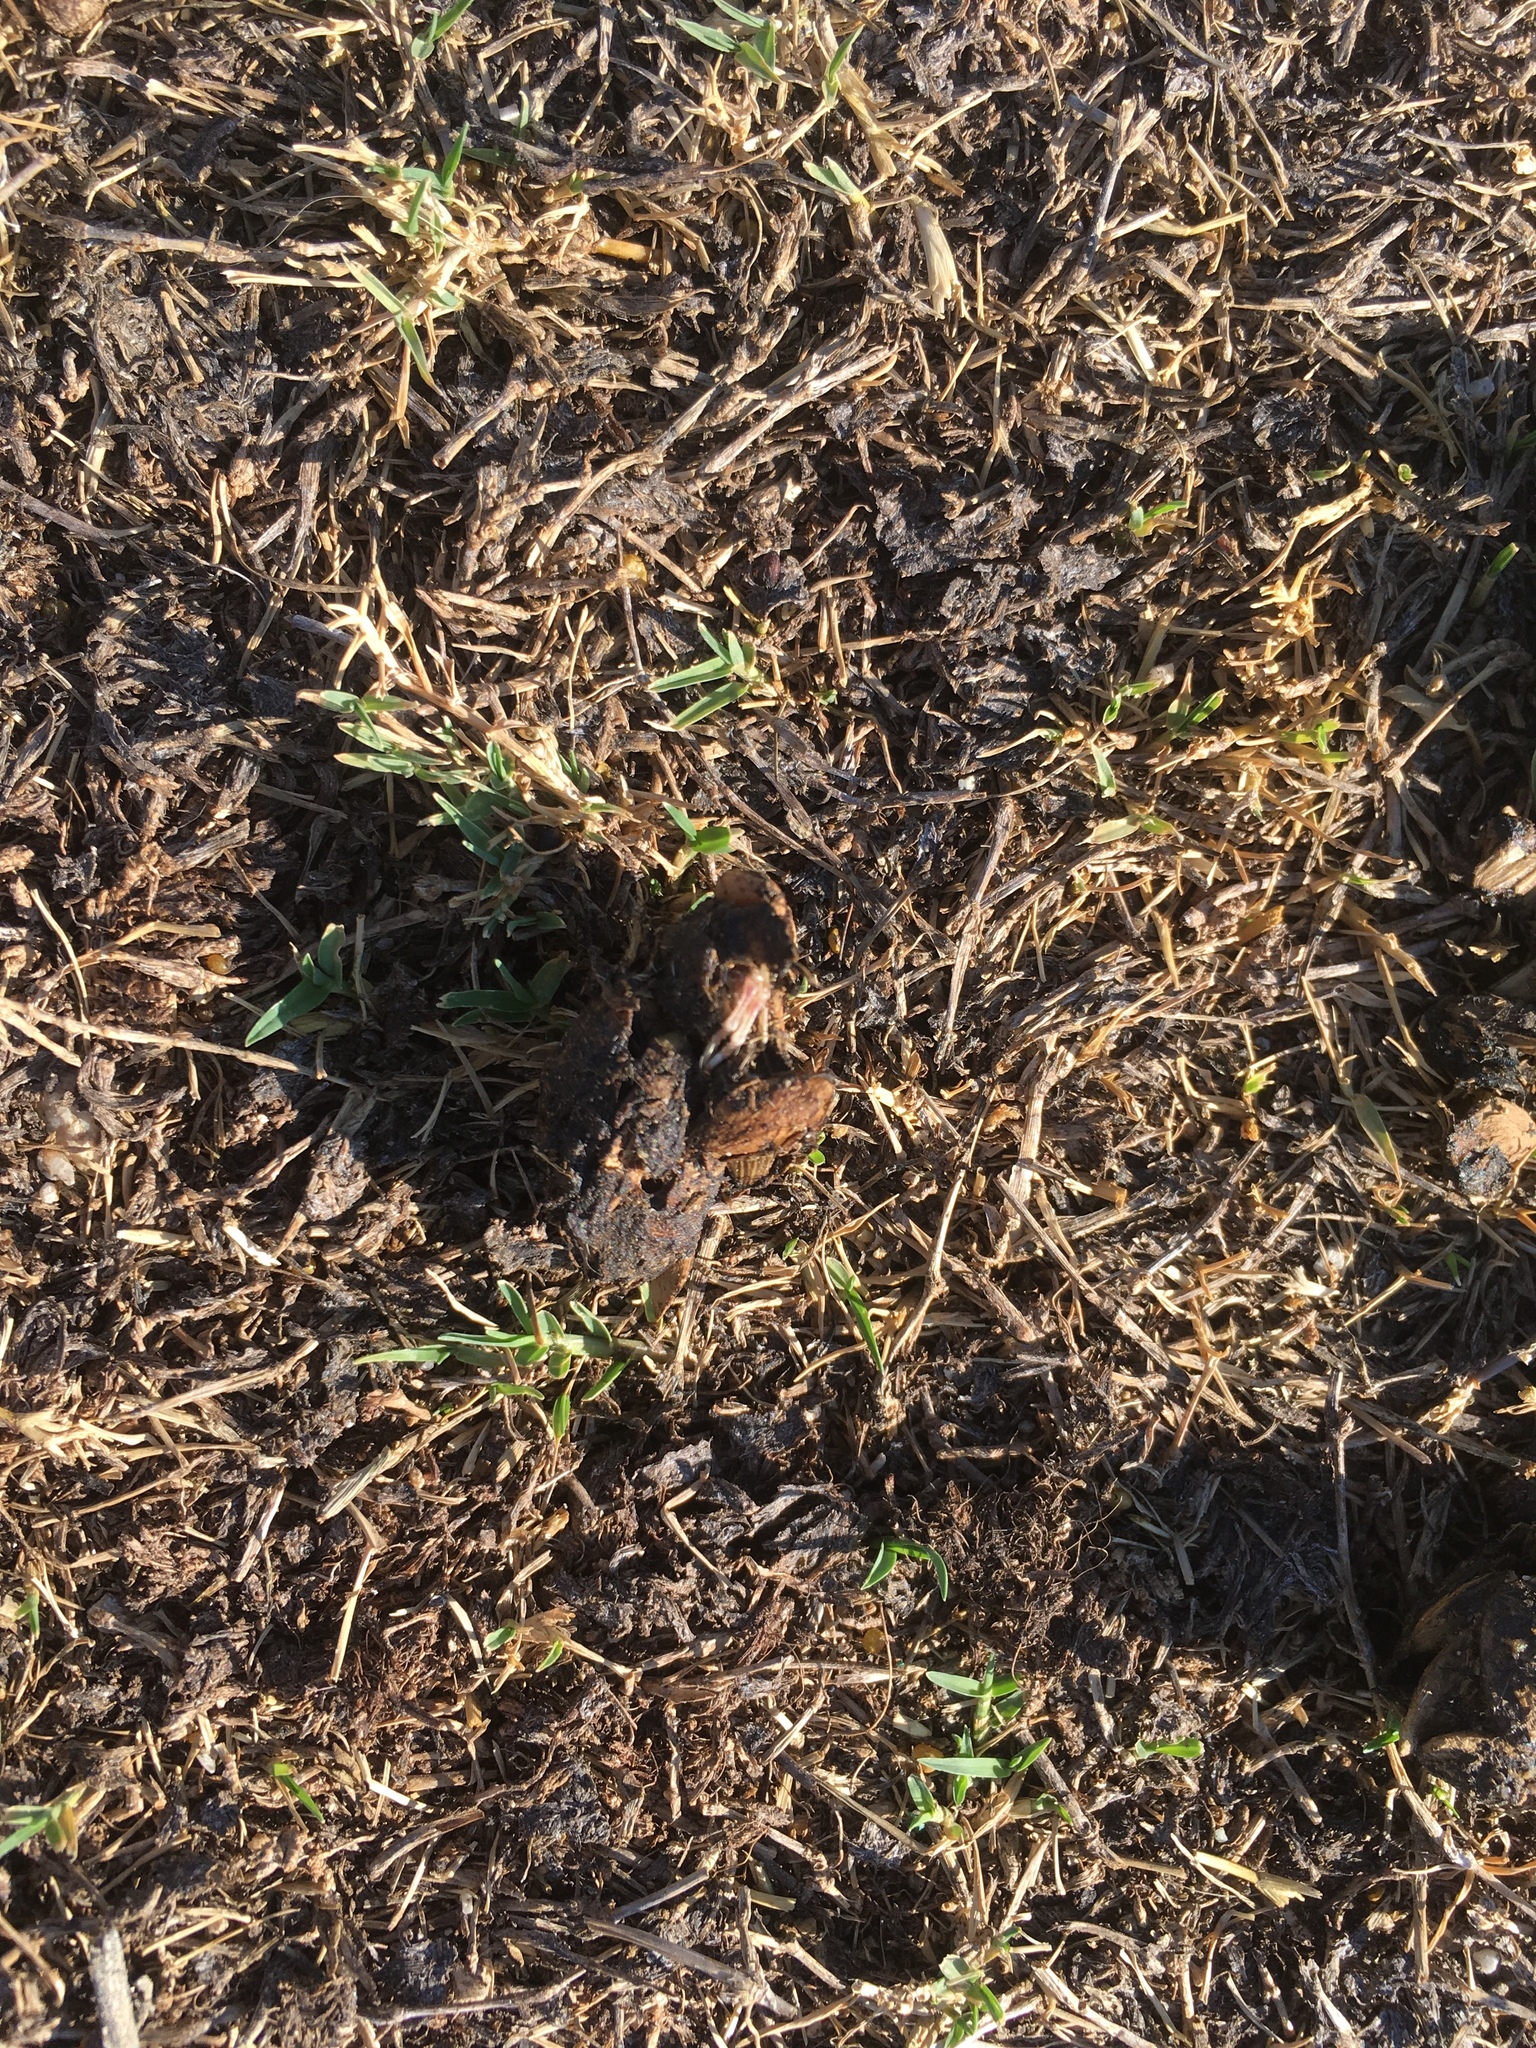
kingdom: Animalia
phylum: Chordata
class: Mammalia
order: Carnivora
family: Canidae
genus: Canis
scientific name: Canis latrans
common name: Coyote
